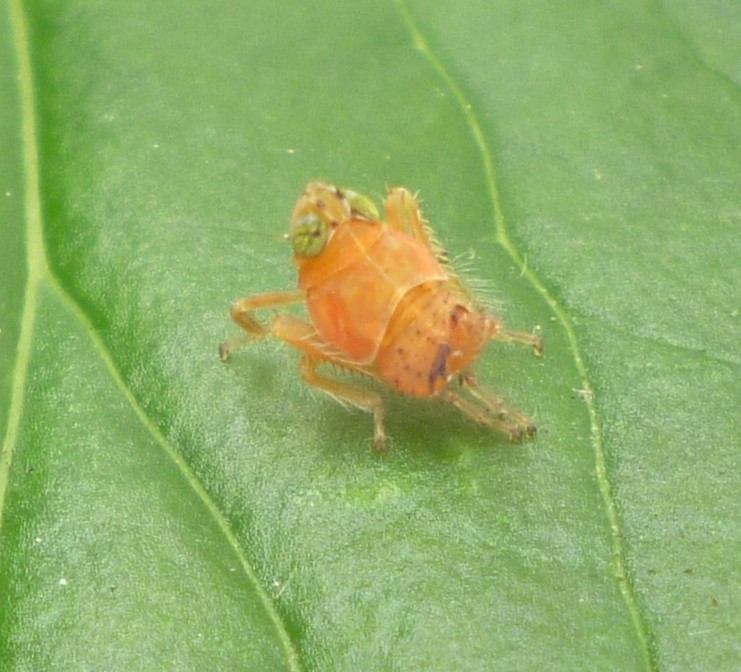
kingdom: Animalia
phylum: Arthropoda
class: Insecta
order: Hemiptera
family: Cicadellidae
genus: Jikradia
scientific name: Jikradia olitoria
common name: Coppery leafhopper
